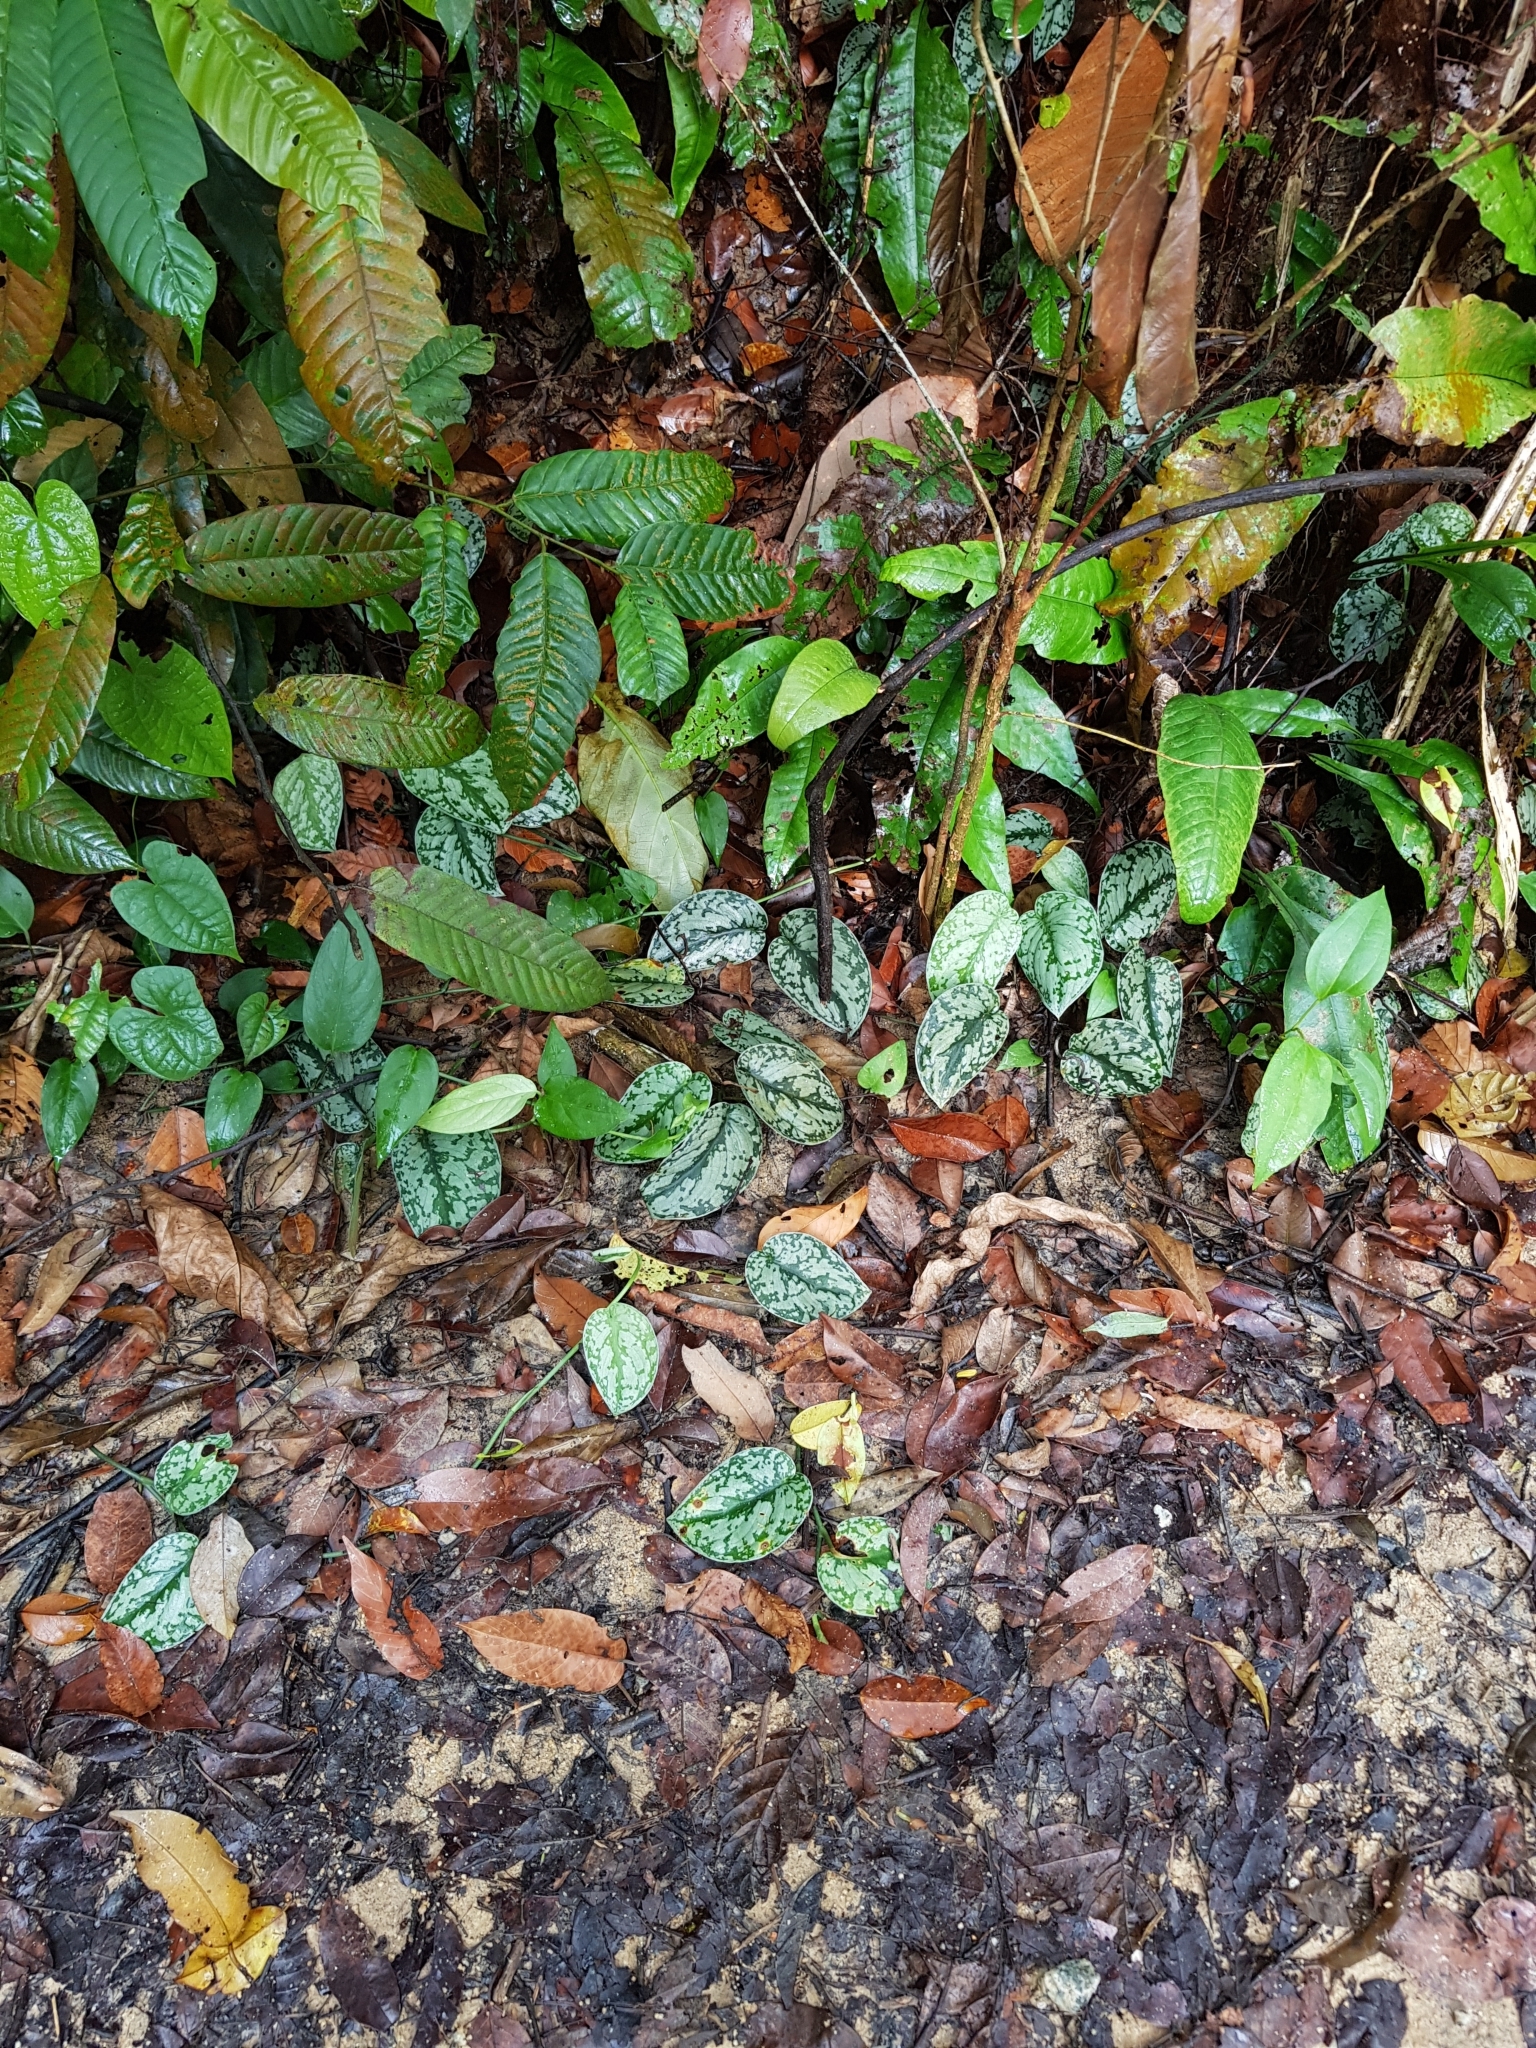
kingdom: Plantae
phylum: Tracheophyta
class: Liliopsida
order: Alismatales
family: Araceae
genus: Scindapsus
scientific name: Scindapsus pictus
